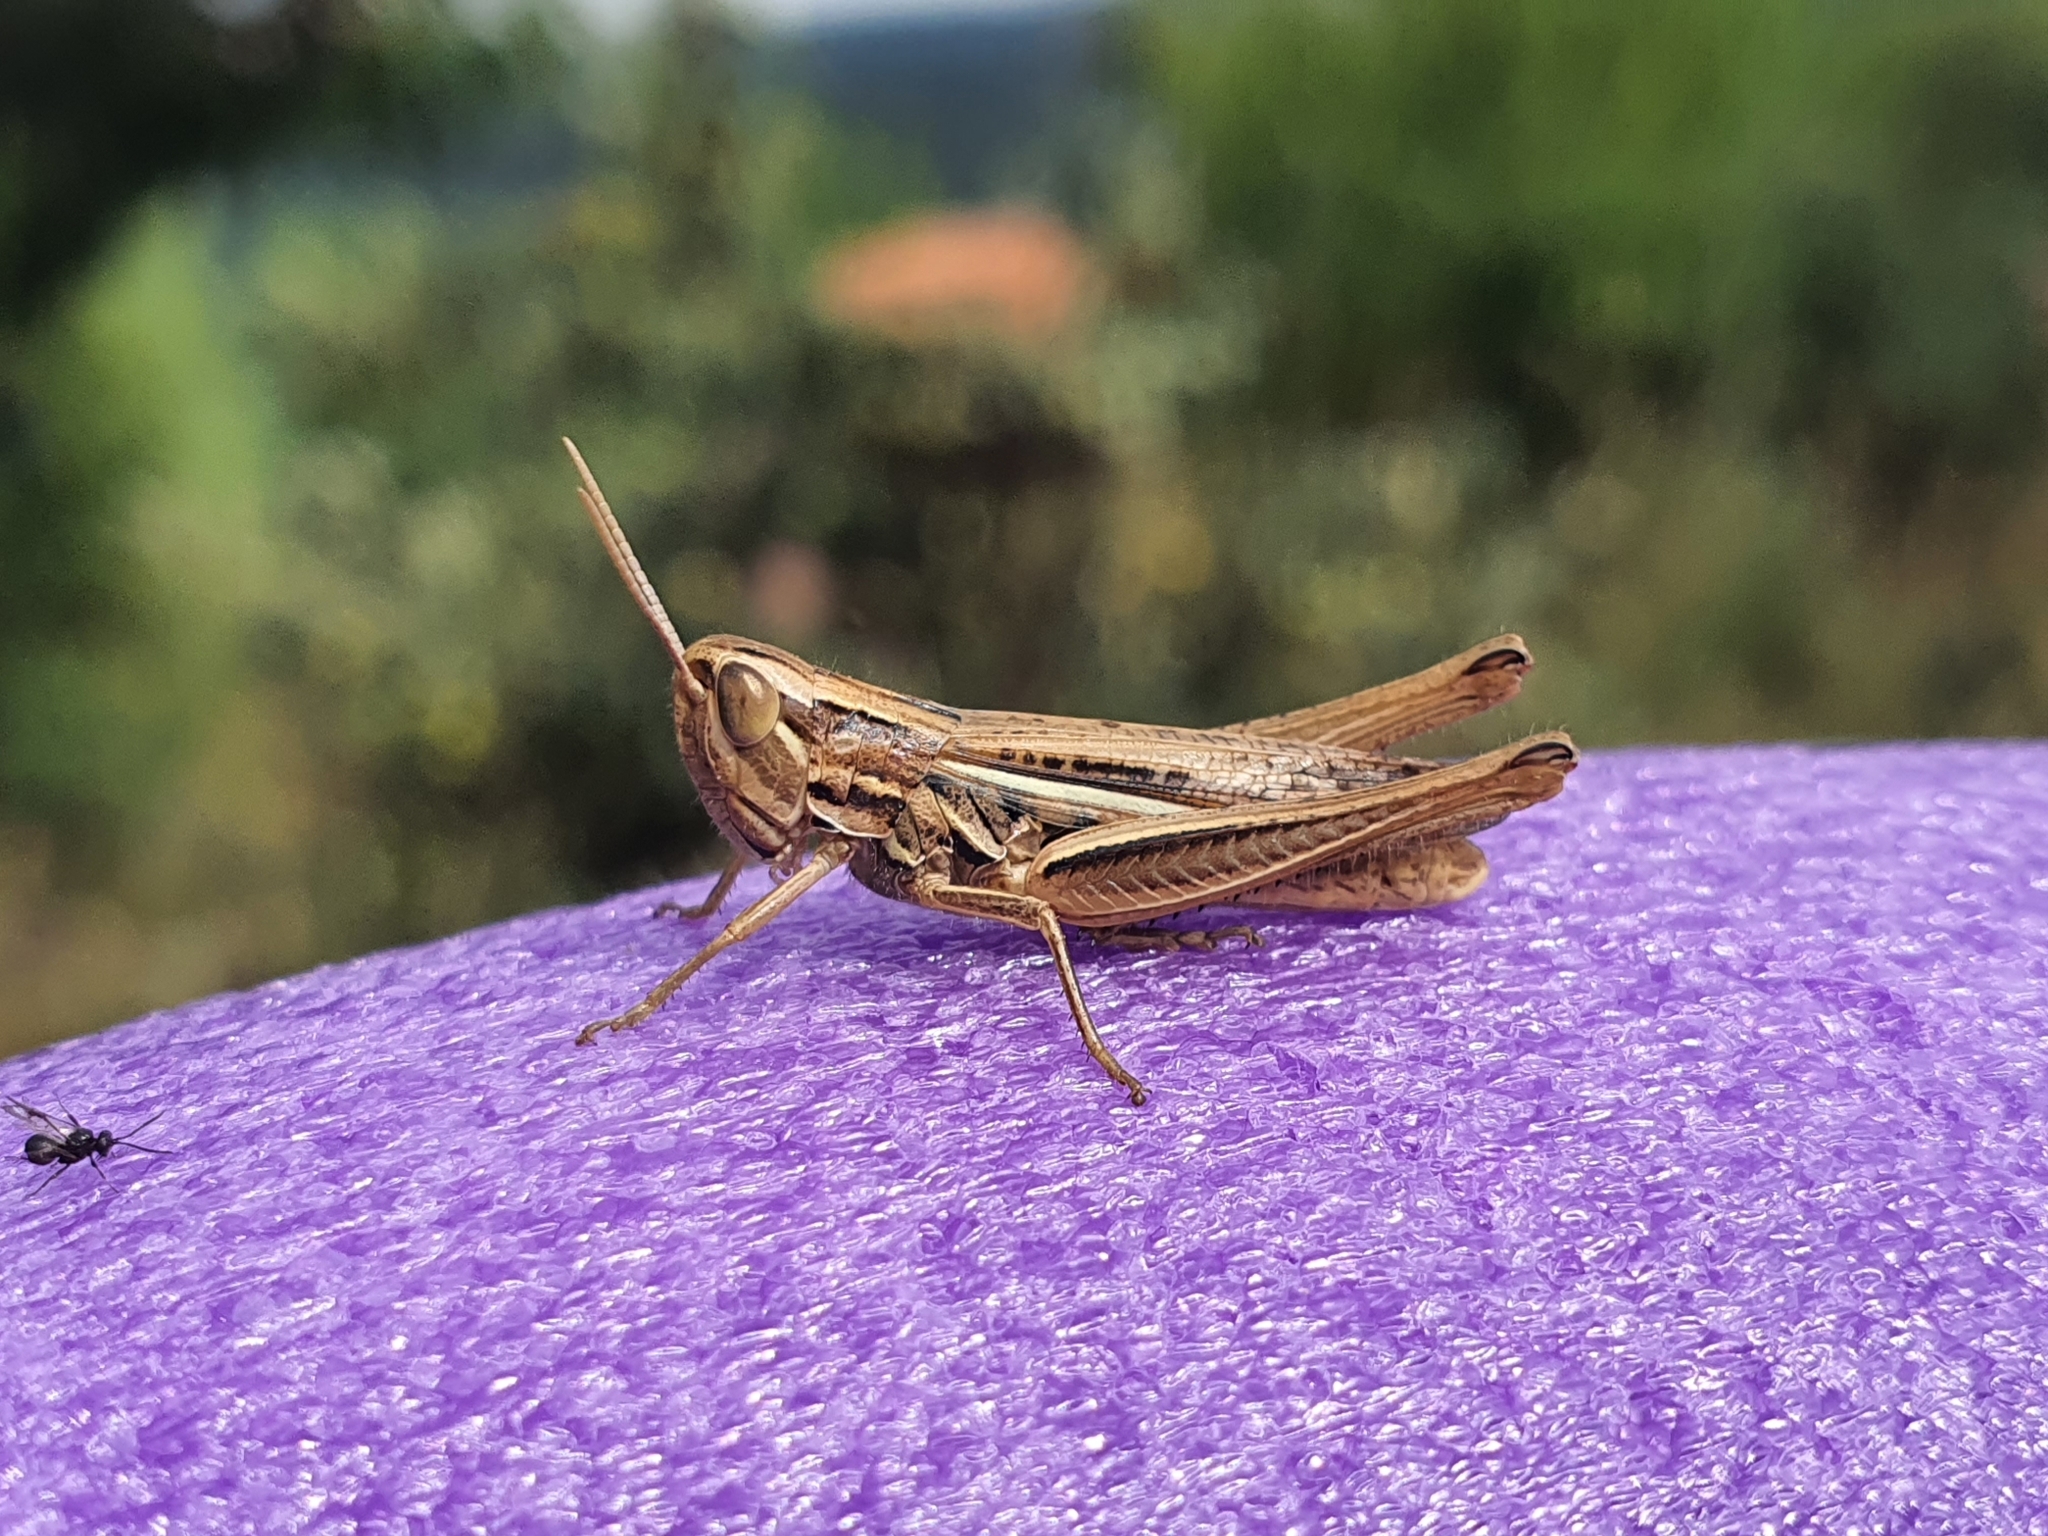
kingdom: Animalia
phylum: Arthropoda
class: Insecta
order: Orthoptera
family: Acrididae
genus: Euchorthippus
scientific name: Euchorthippus declivus
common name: Common straw grasshopper
